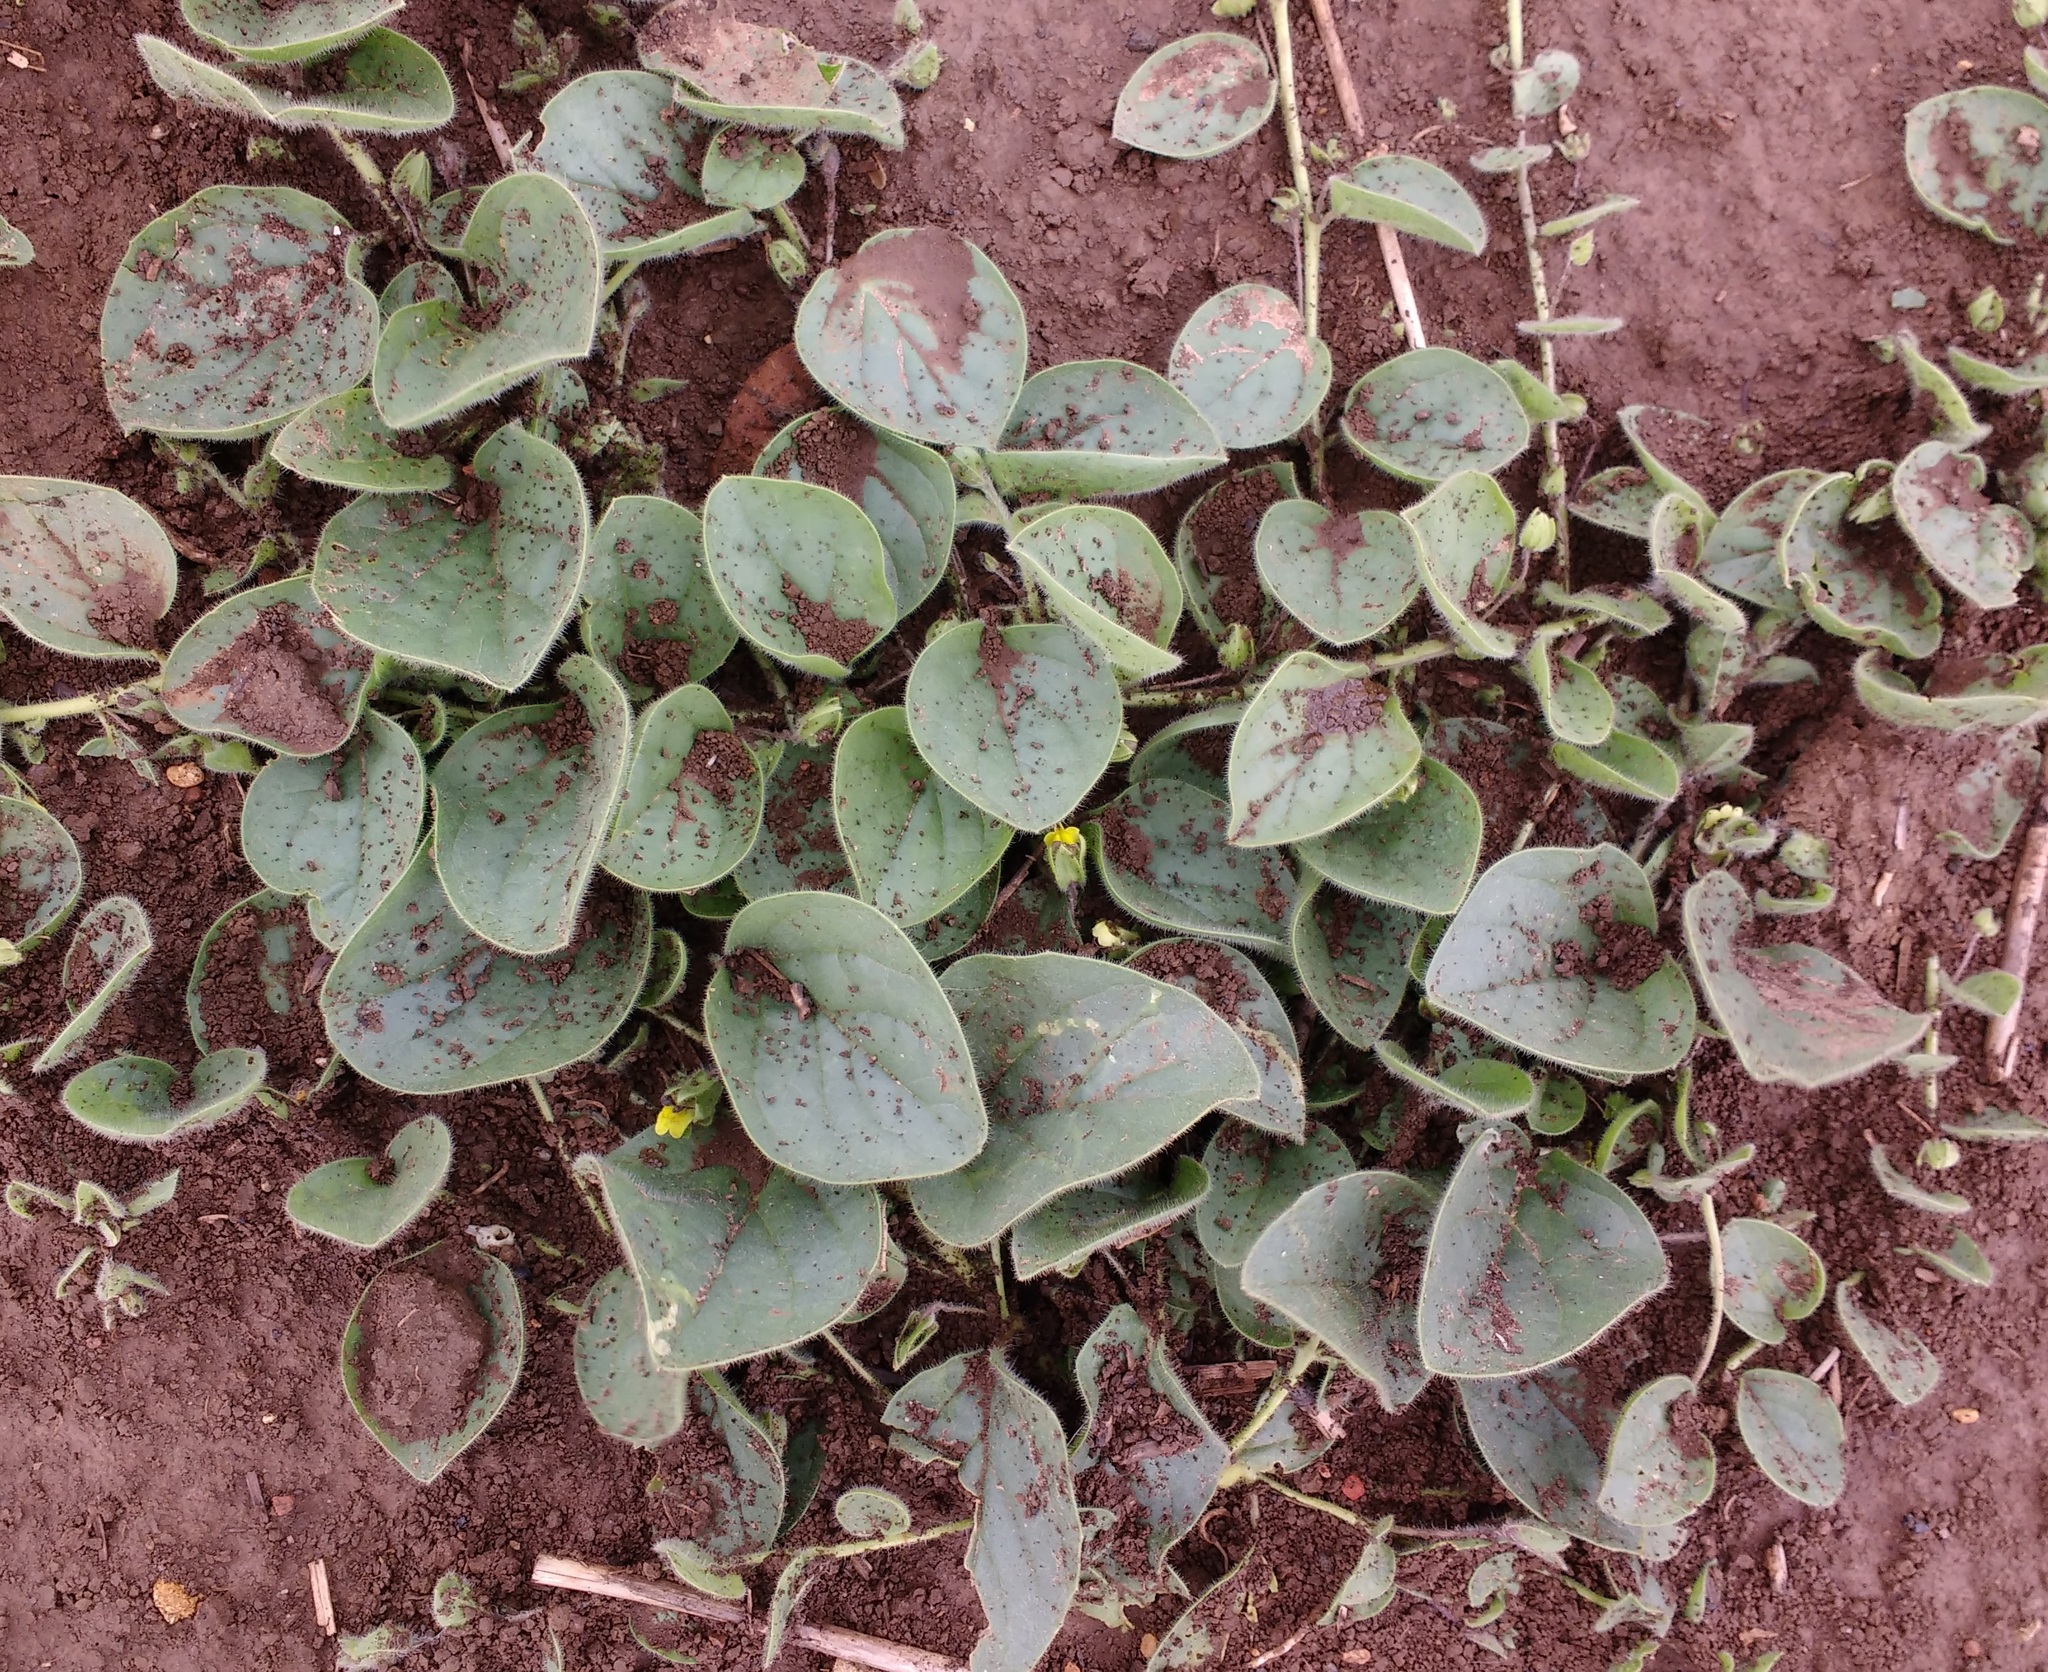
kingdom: Plantae
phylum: Tracheophyta
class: Magnoliopsida
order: Lamiales
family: Plantaginaceae
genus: Kickxia
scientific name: Kickxia spuria
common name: Round-leaved fluellen
